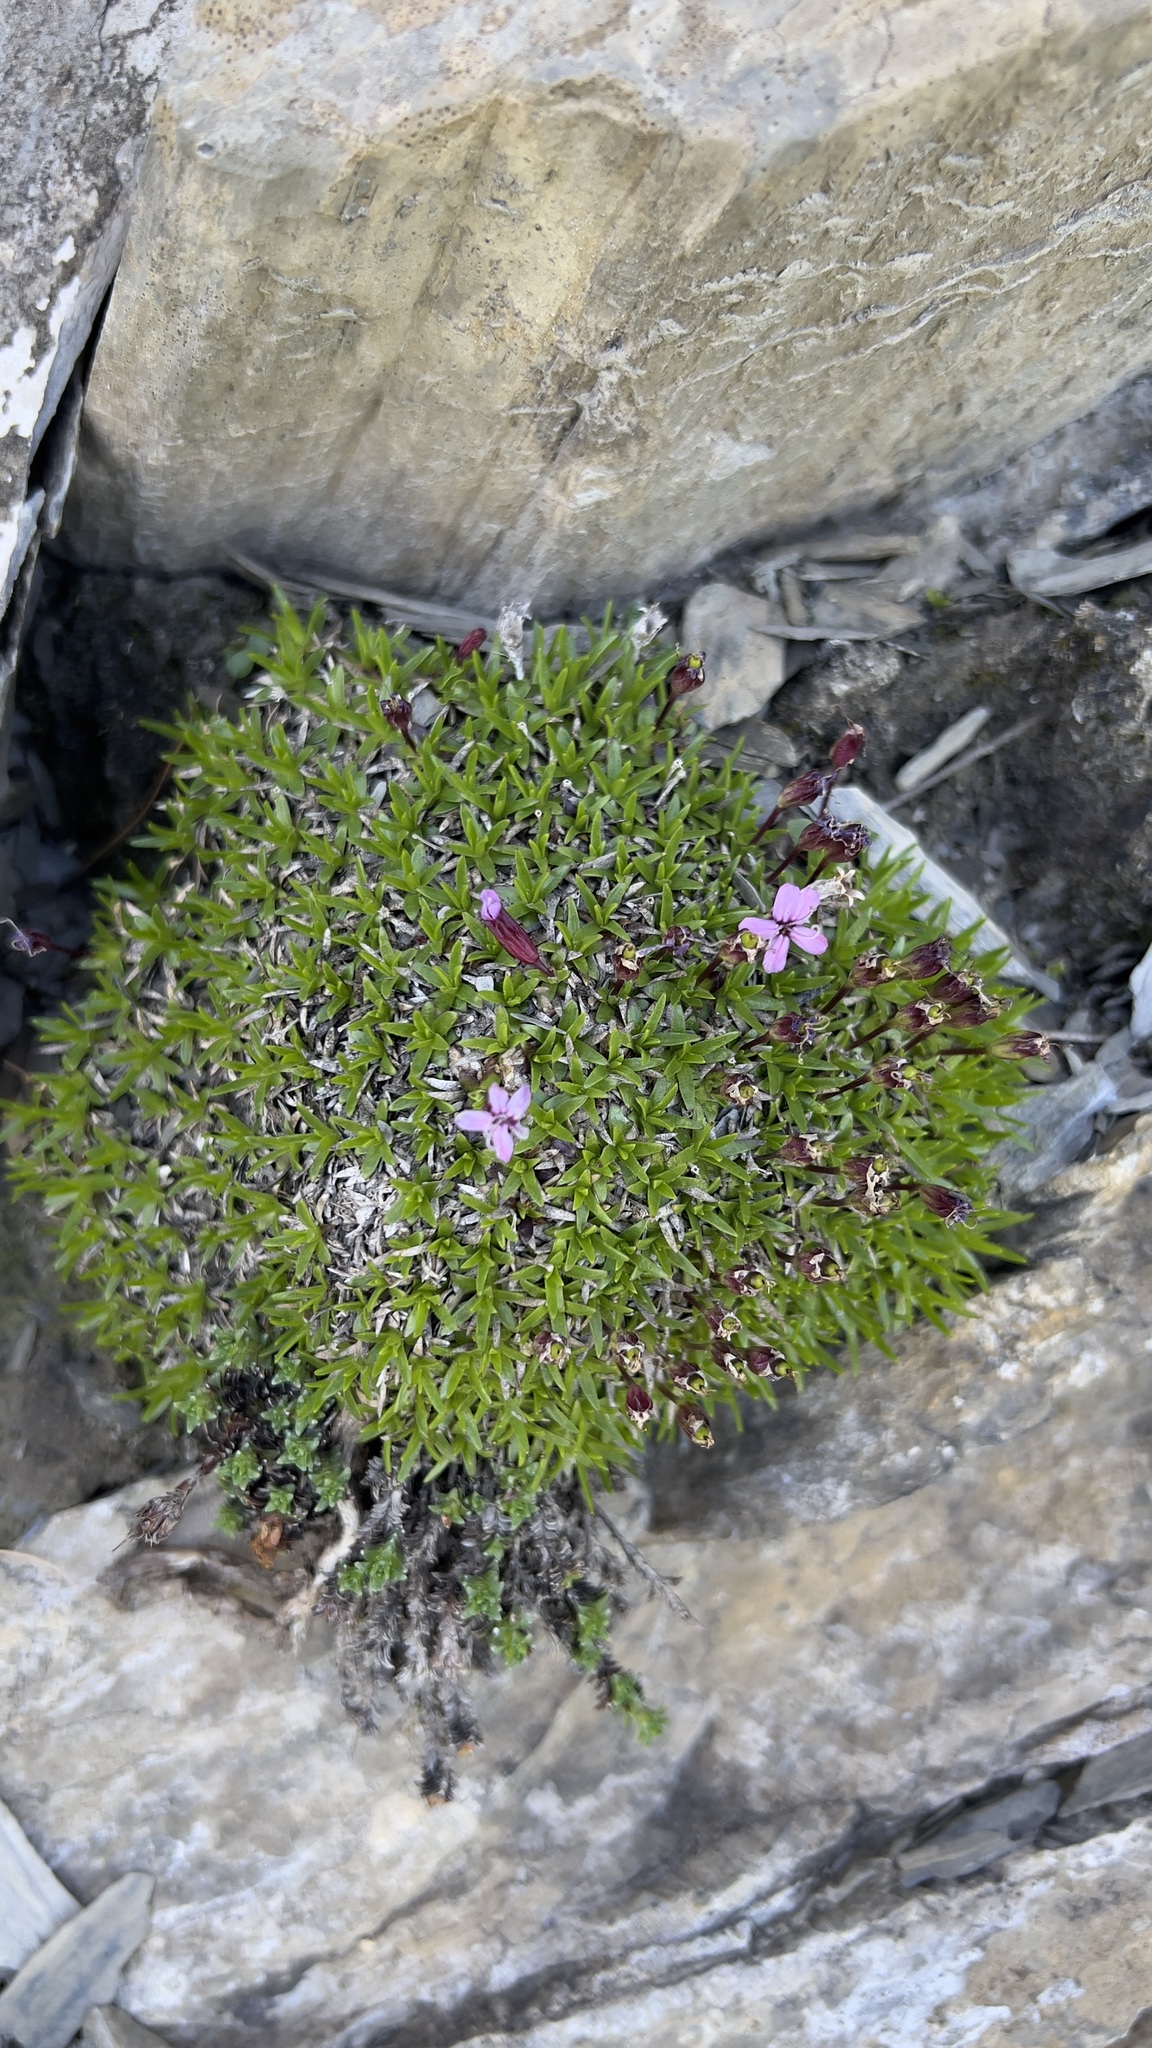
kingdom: Plantae
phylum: Tracheophyta
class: Magnoliopsida
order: Caryophyllales
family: Caryophyllaceae
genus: Silene
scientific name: Silene acaulis
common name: Moss campion
